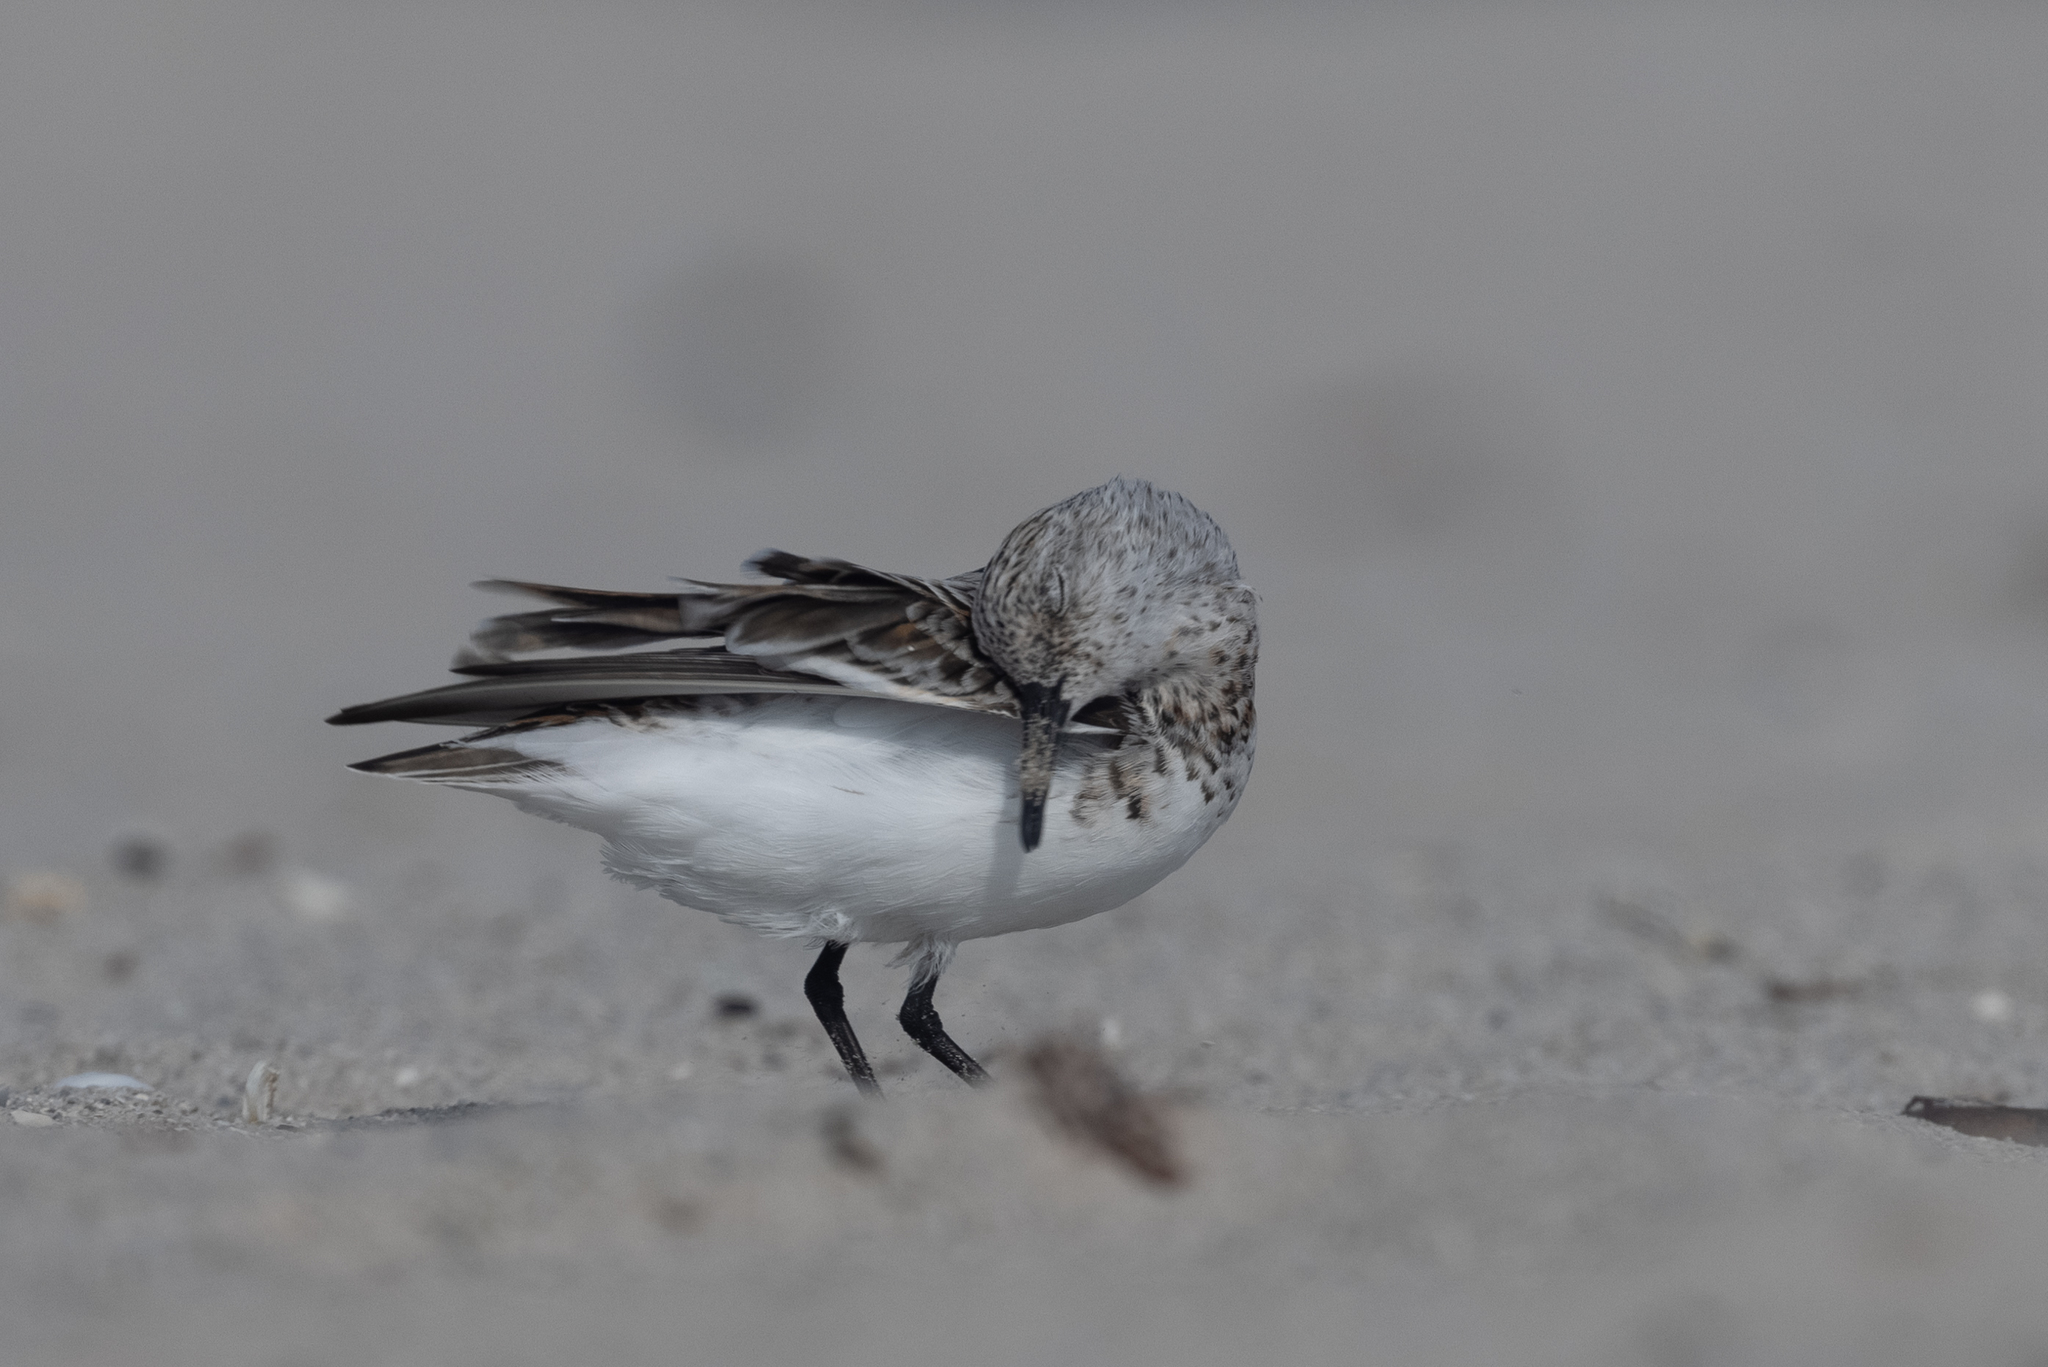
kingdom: Animalia
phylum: Chordata
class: Aves
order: Charadriiformes
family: Scolopacidae
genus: Calidris
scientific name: Calidris alba
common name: Sanderling
